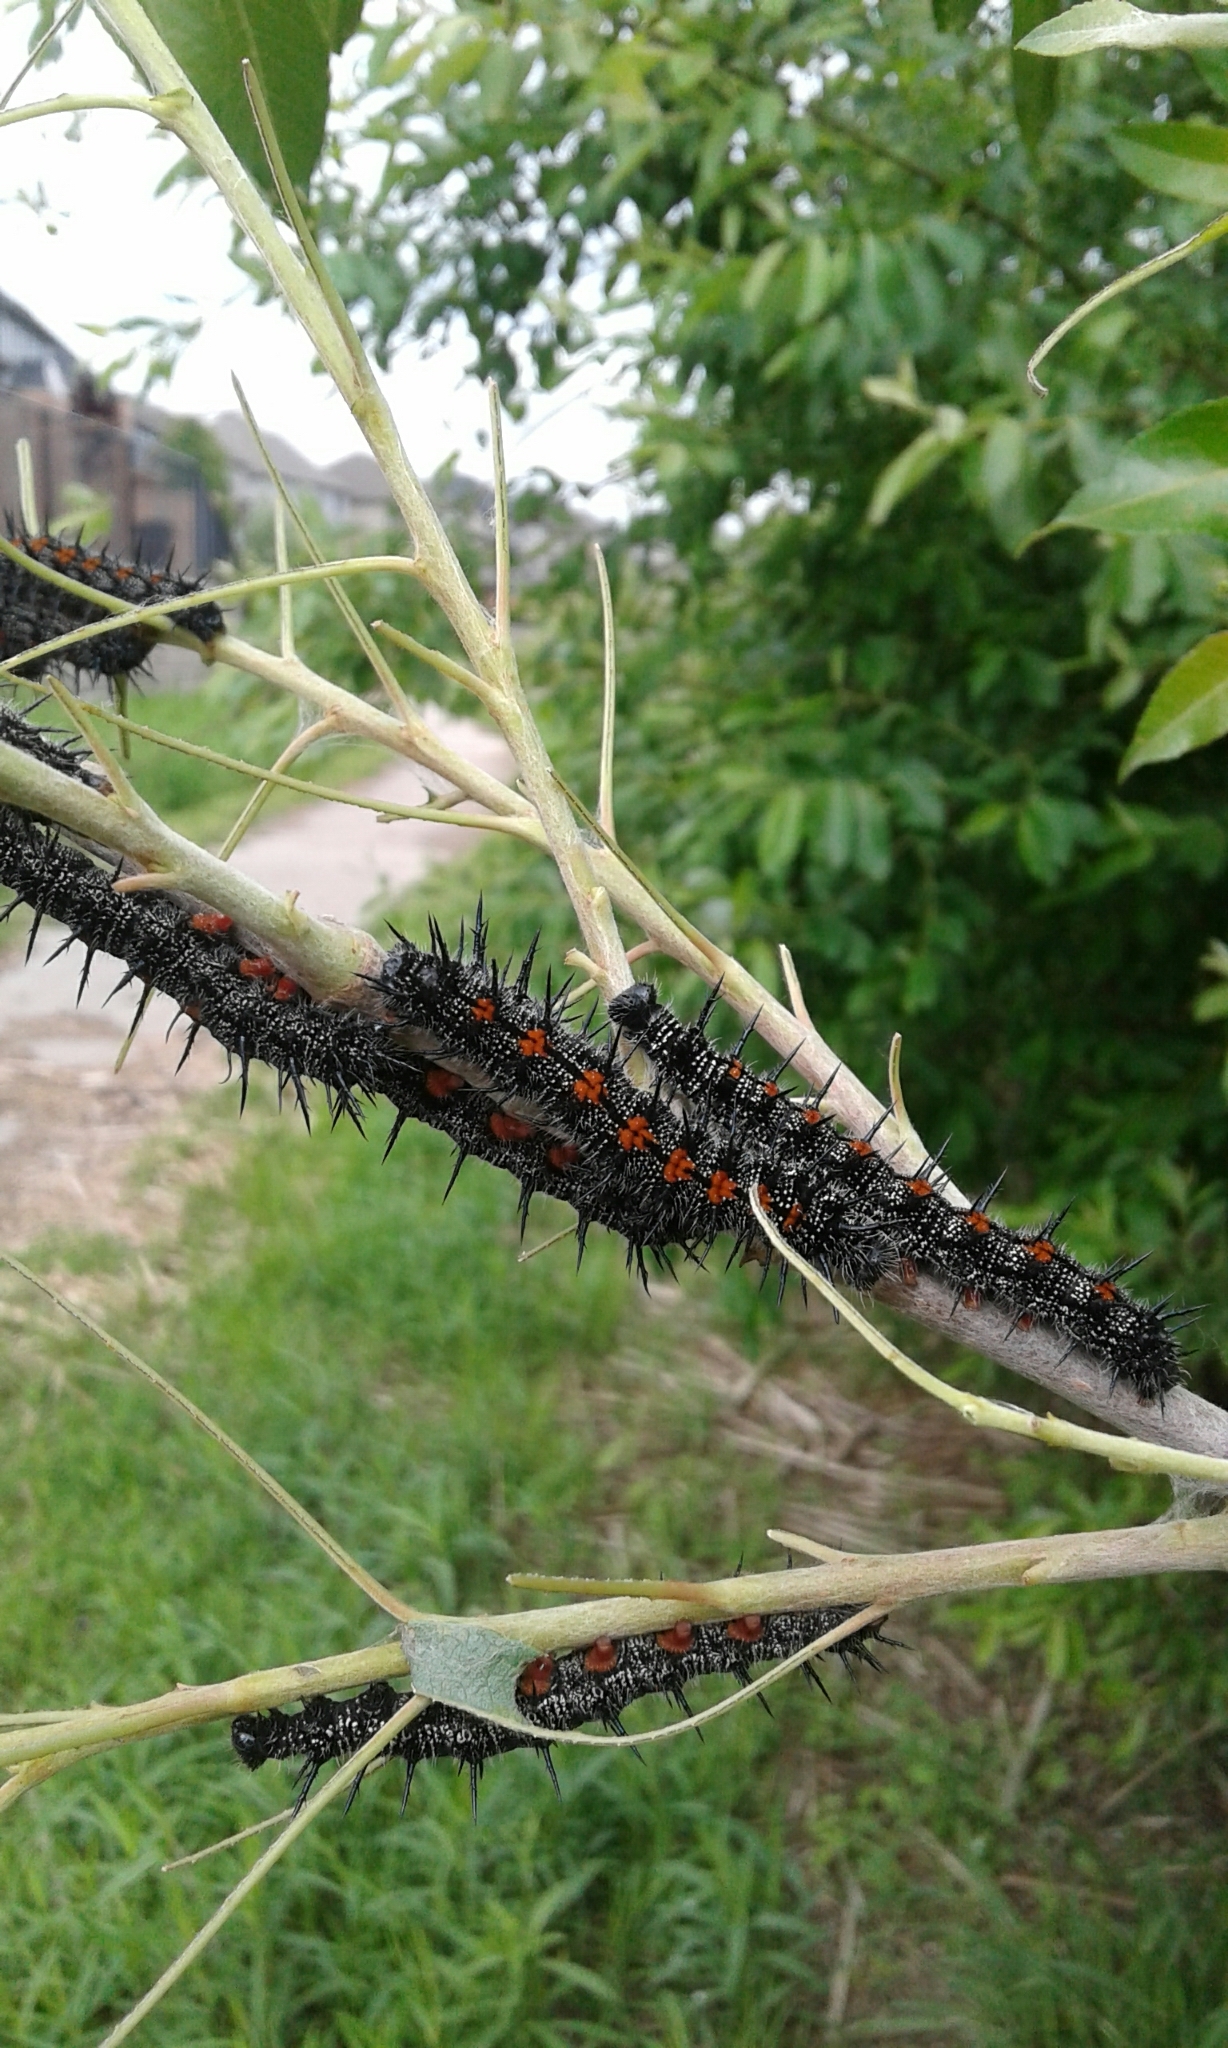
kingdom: Animalia
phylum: Arthropoda
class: Insecta
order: Lepidoptera
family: Nymphalidae
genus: Nymphalis
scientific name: Nymphalis antiopa
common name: Camberwell beauty
